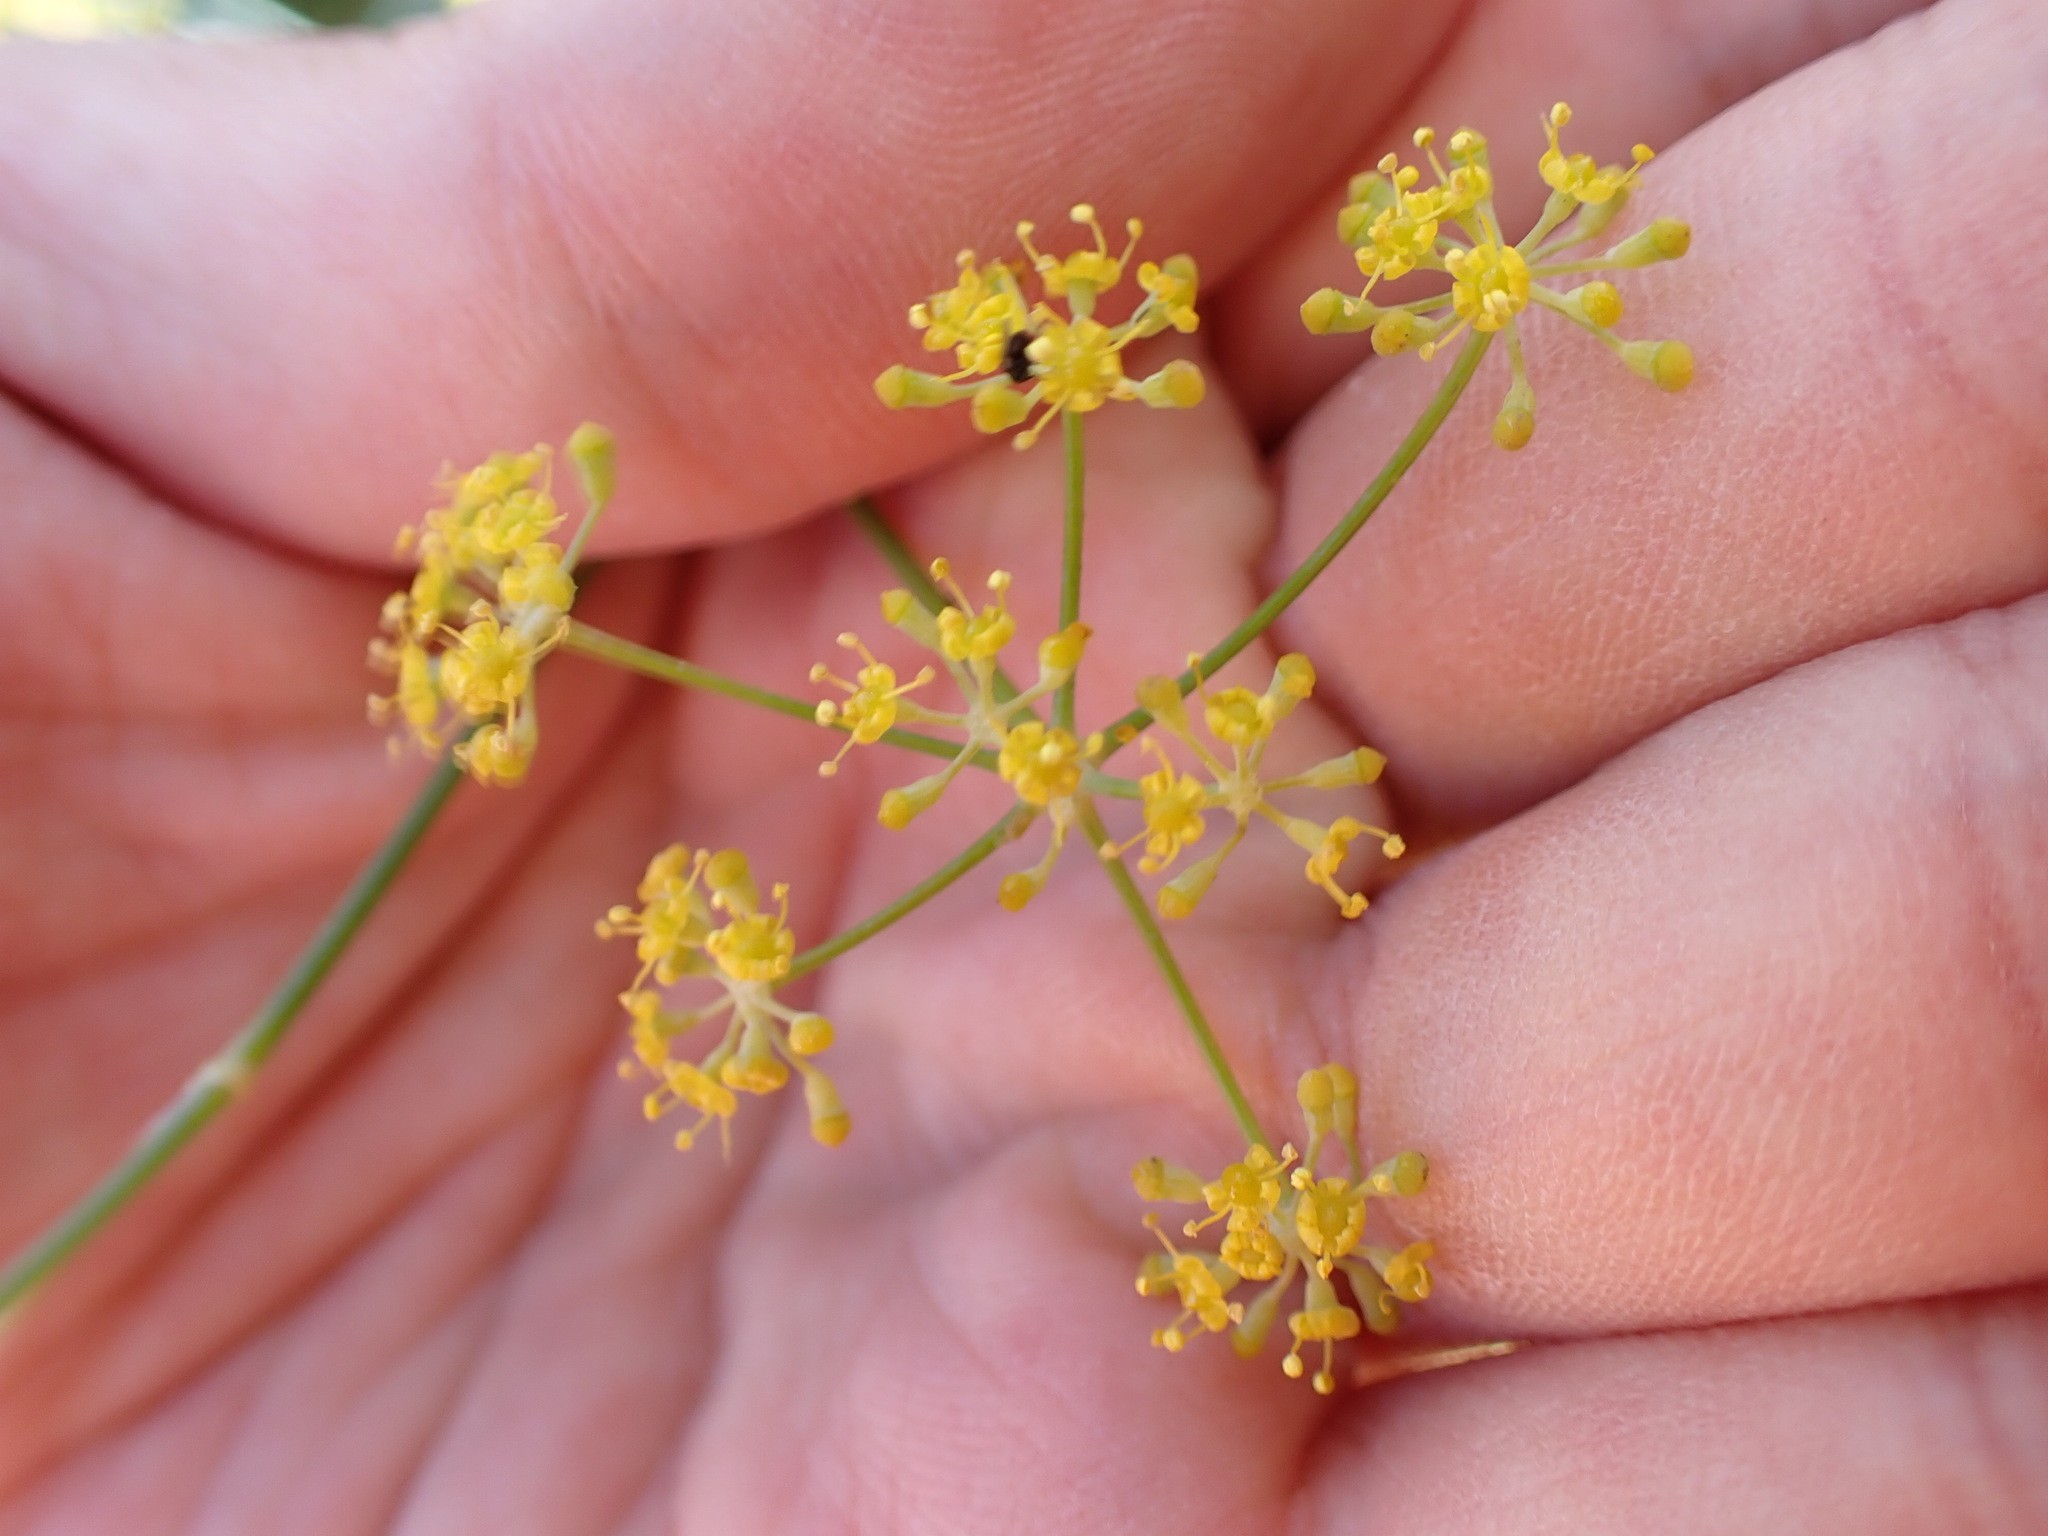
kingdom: Plantae
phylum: Tracheophyta
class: Magnoliopsida
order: Apiales
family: Apiaceae
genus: Foeniculum
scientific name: Foeniculum vulgare
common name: Fennel
